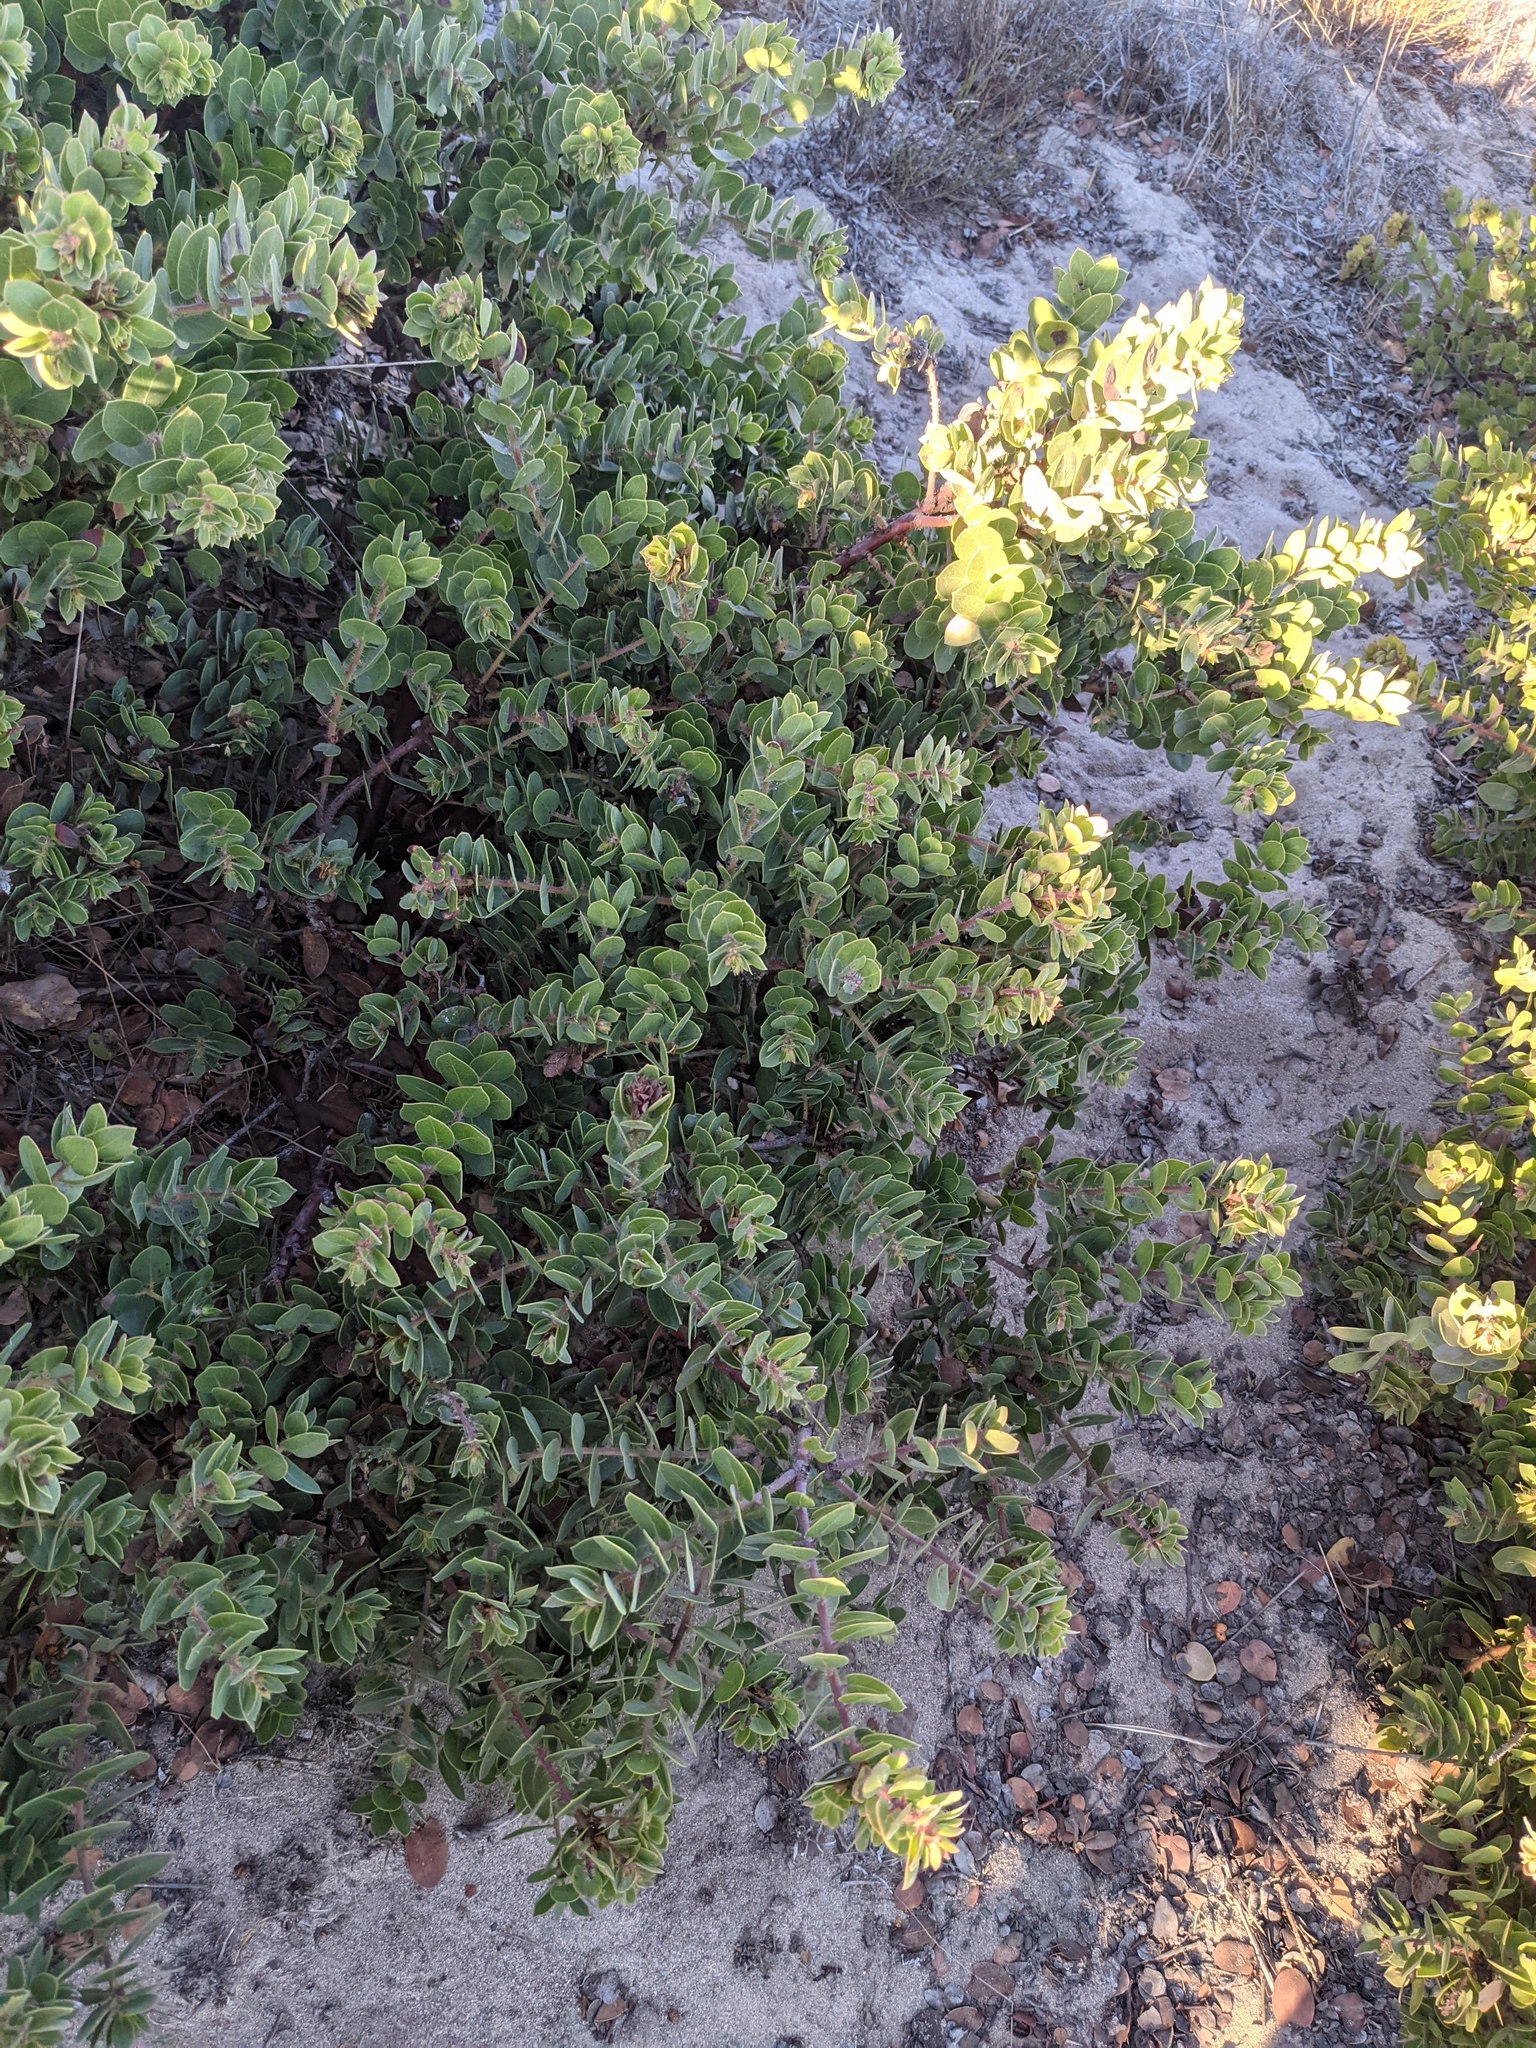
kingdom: Plantae
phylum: Tracheophyta
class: Magnoliopsida
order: Ericales
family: Ericaceae
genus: Arctostaphylos
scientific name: Arctostaphylos purissima
